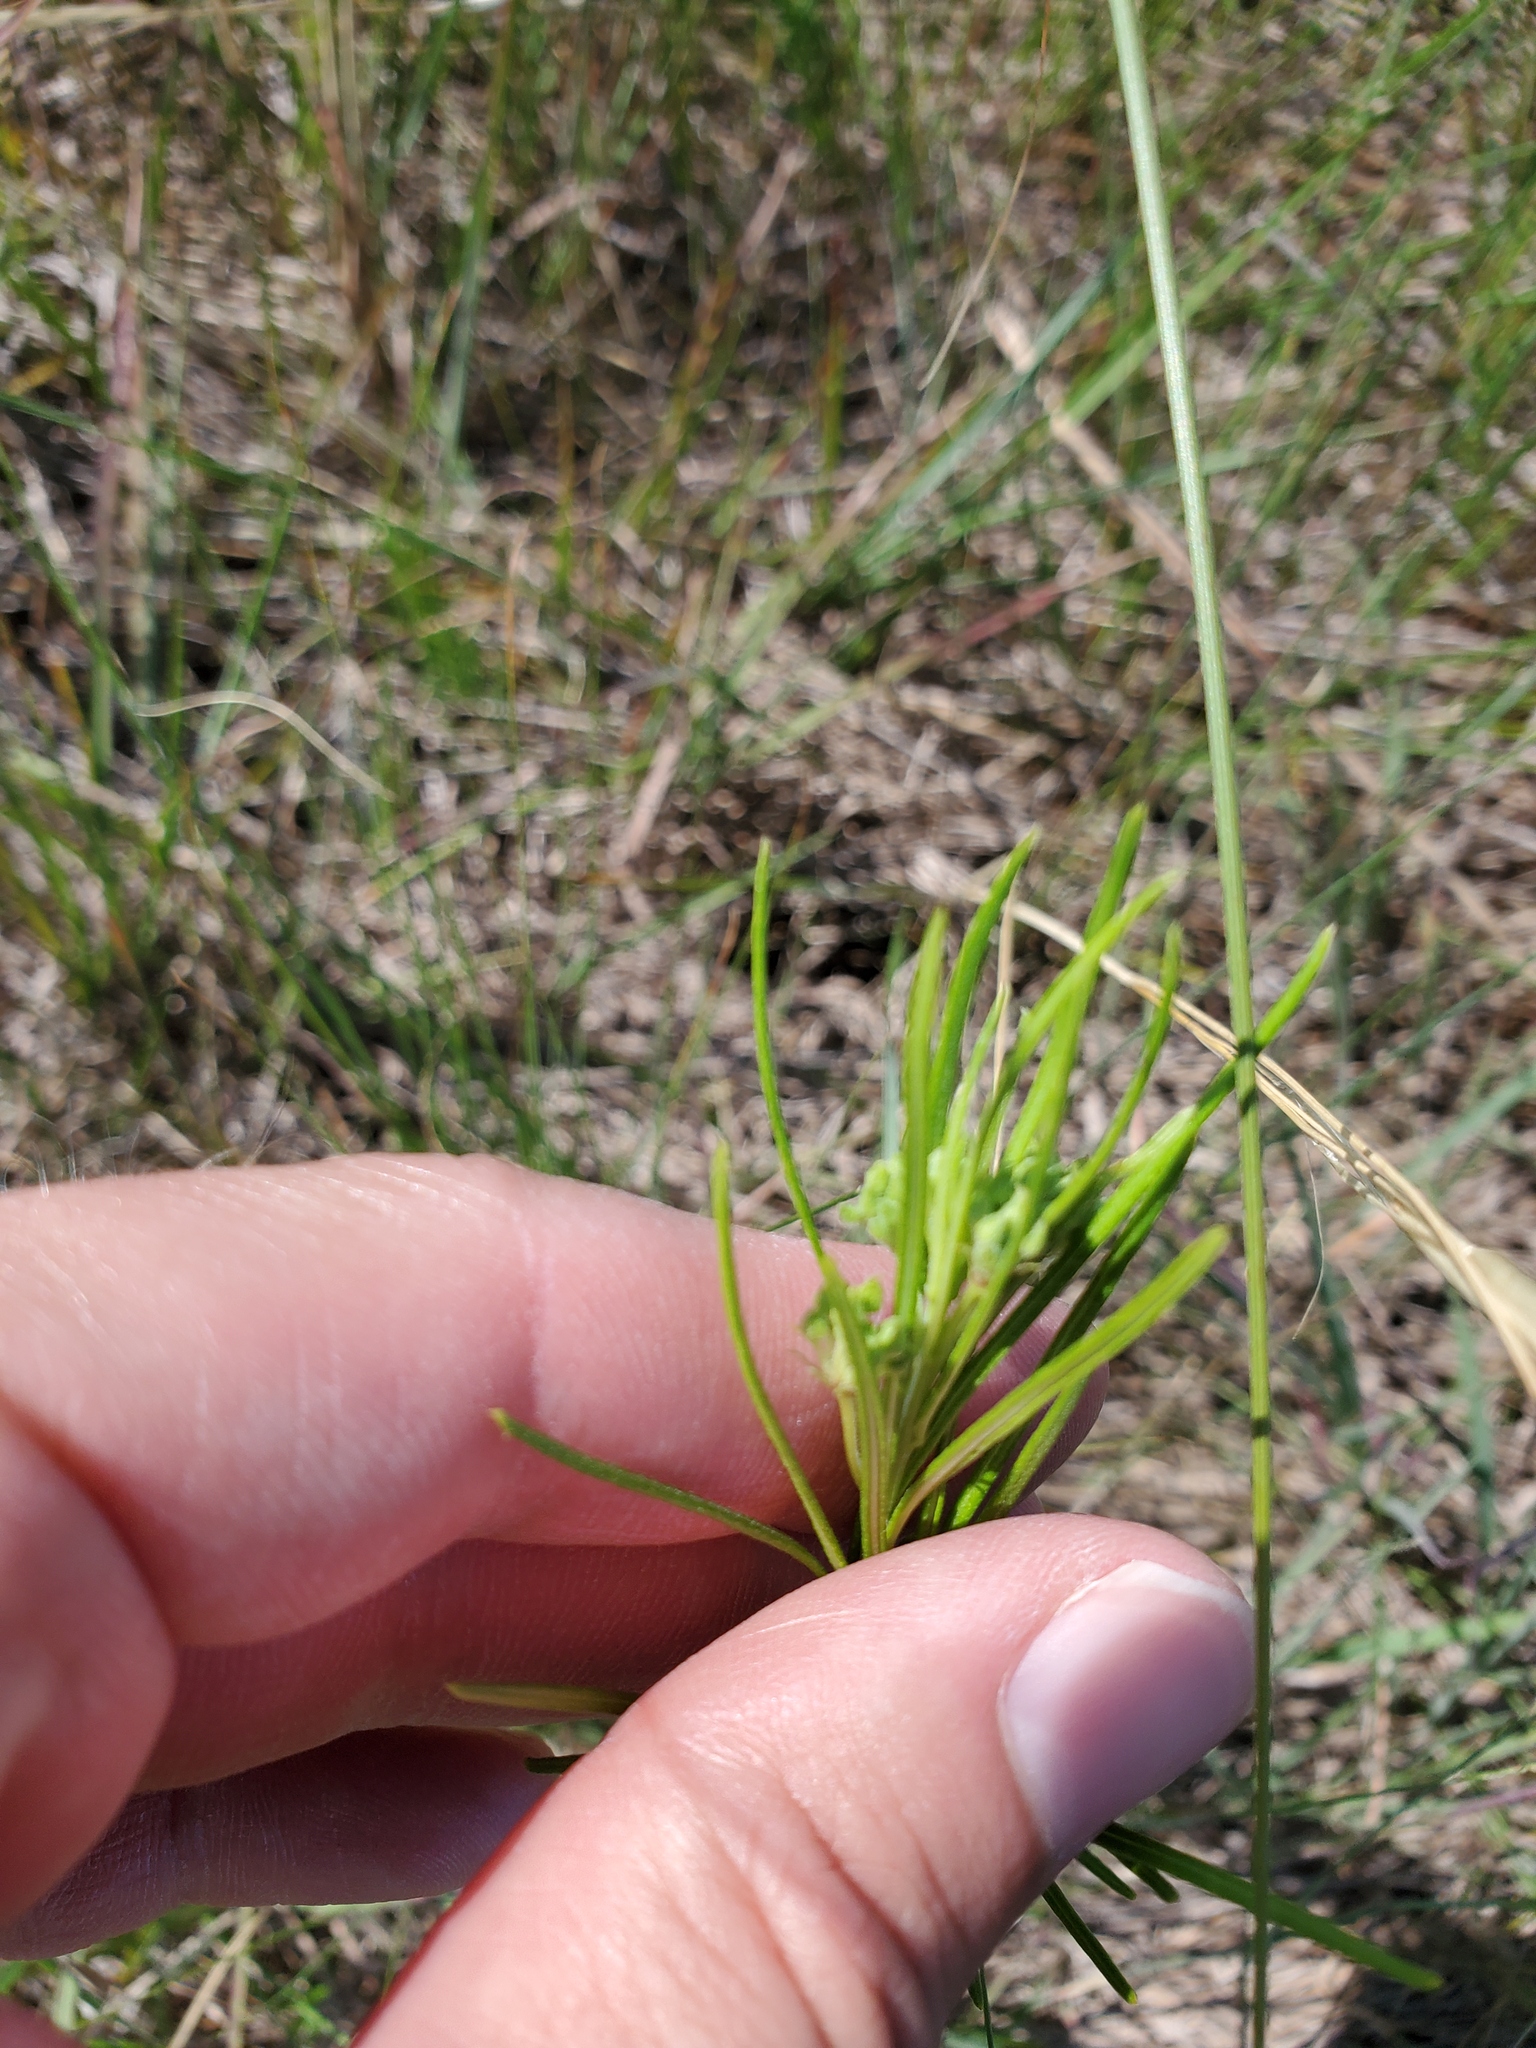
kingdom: Plantae
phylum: Tracheophyta
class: Magnoliopsida
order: Gentianales
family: Apocynaceae
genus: Asclepias
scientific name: Asclepias verticillata
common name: Eastern whorled milkweed
